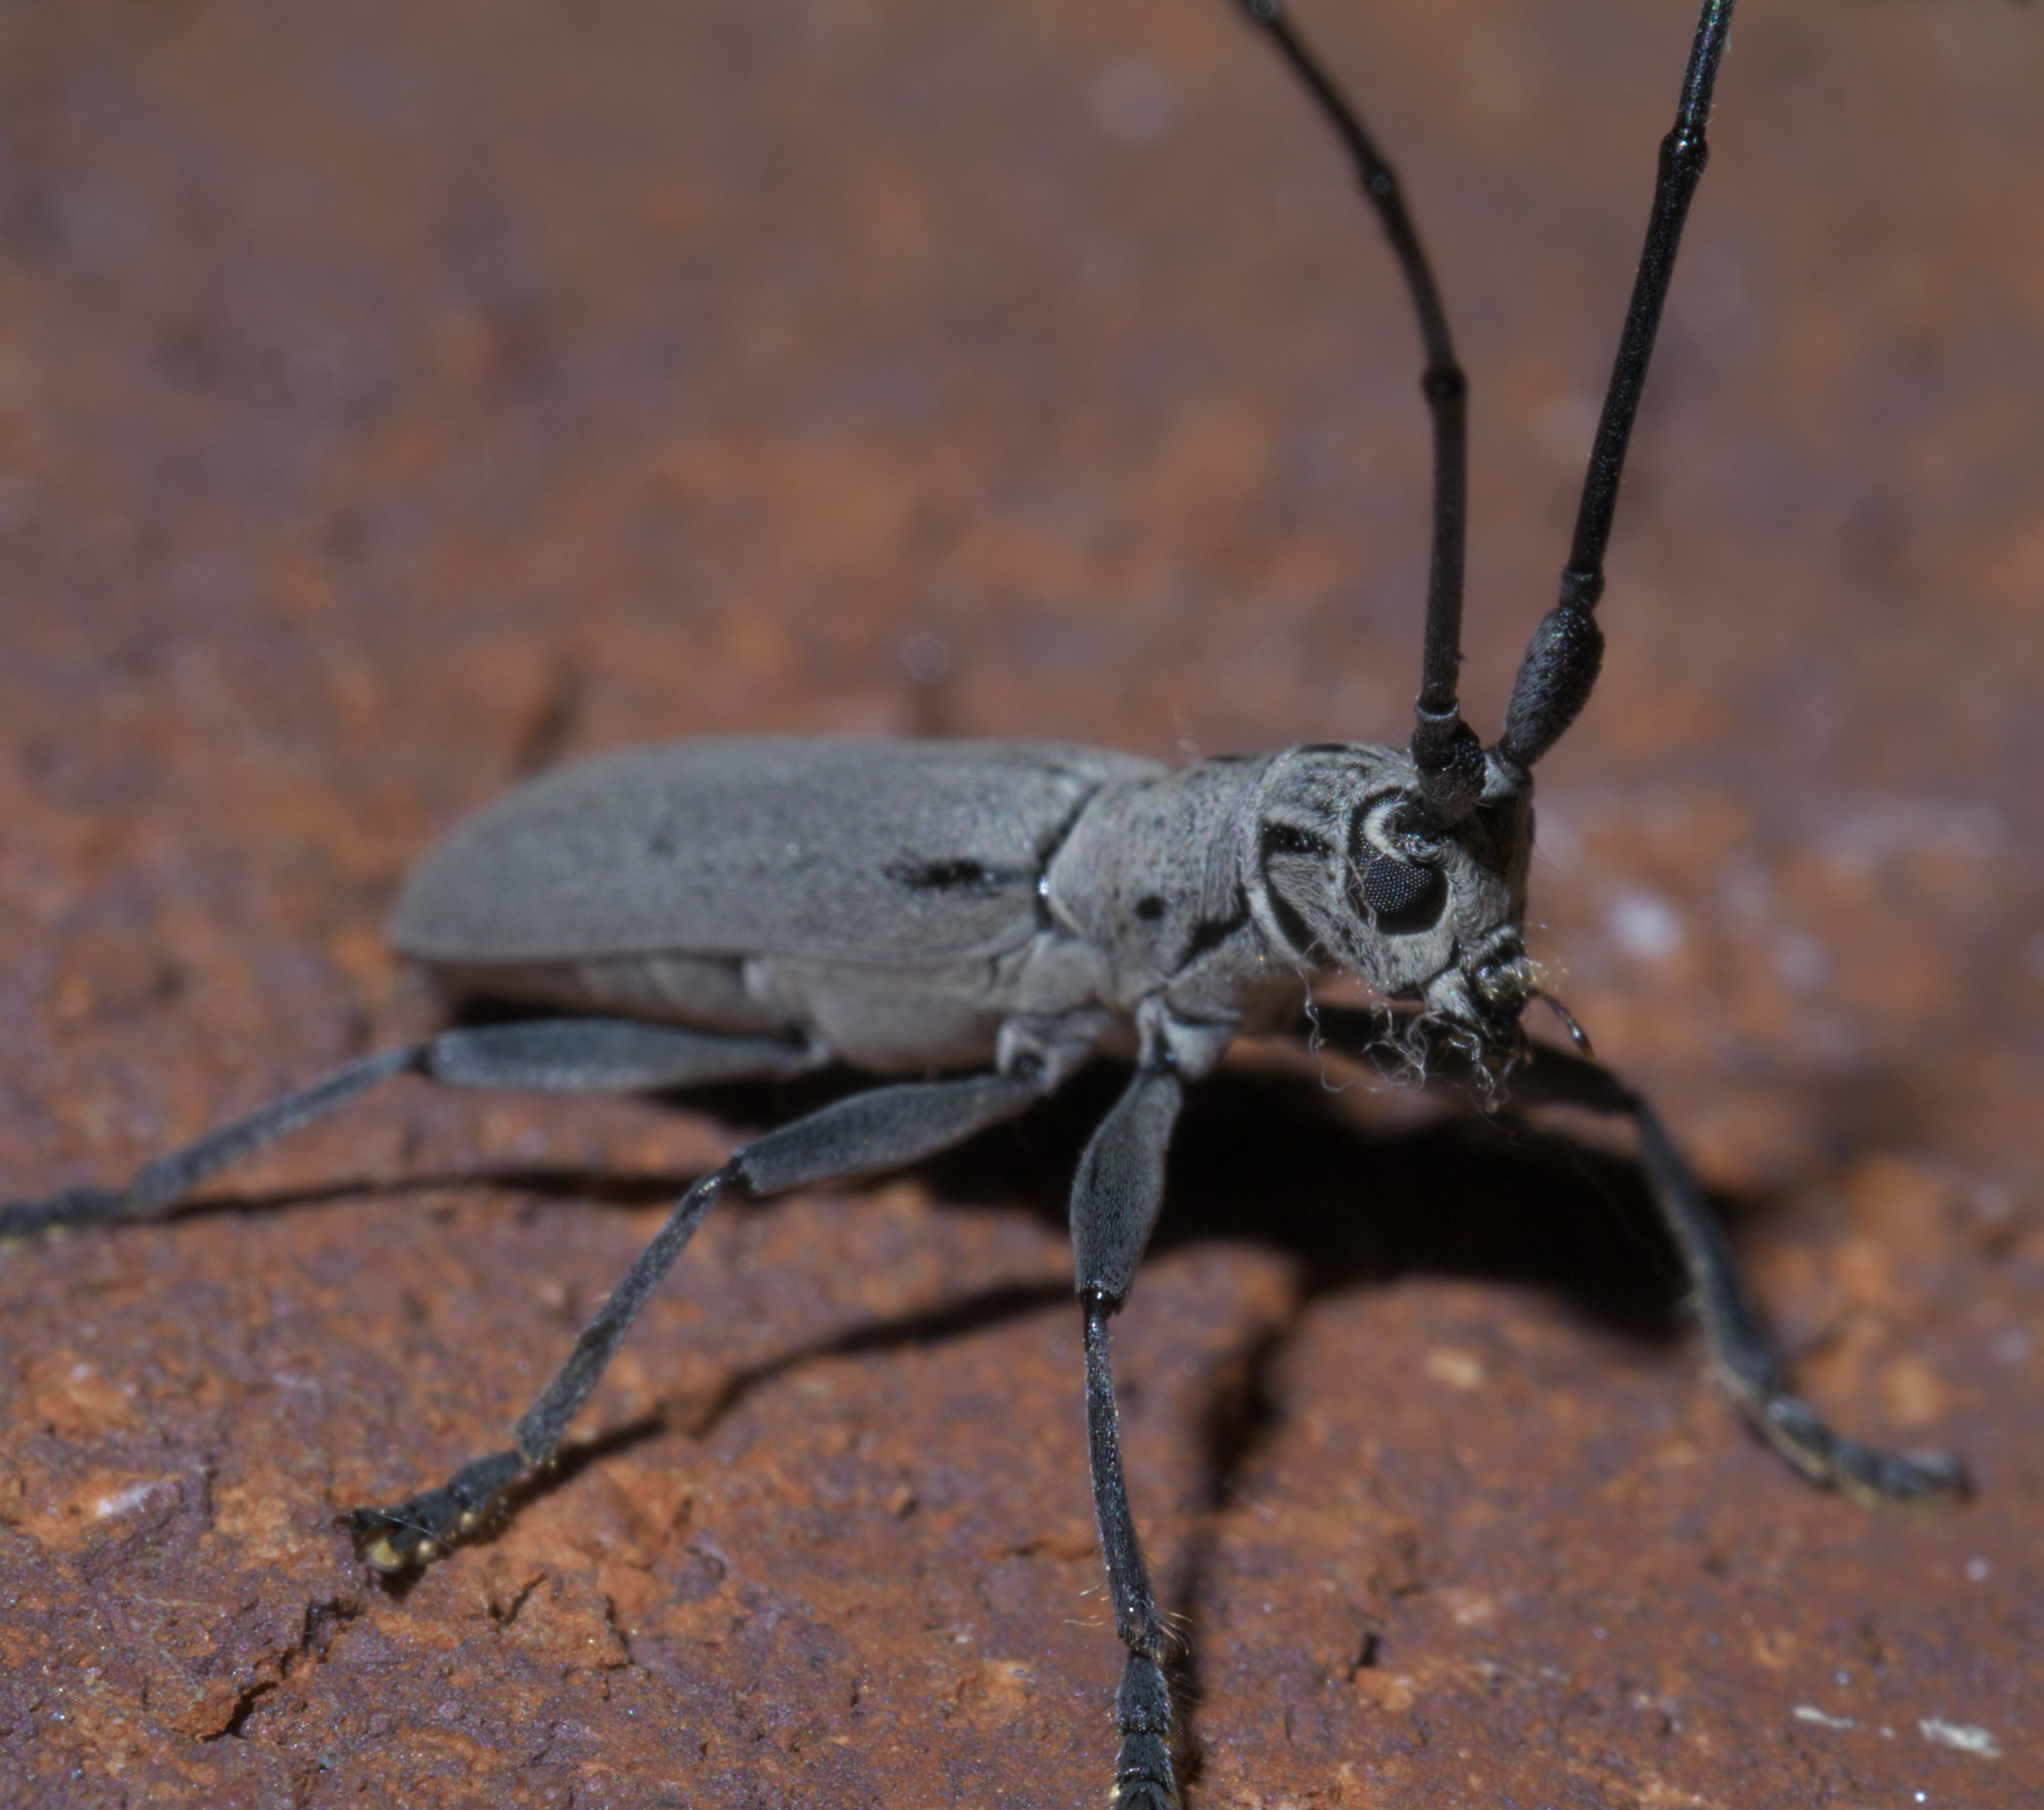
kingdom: Animalia
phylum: Arthropoda
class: Insecta
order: Coleoptera
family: Cerambycidae
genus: Dorcaschema
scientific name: Dorcaschema cinereum
